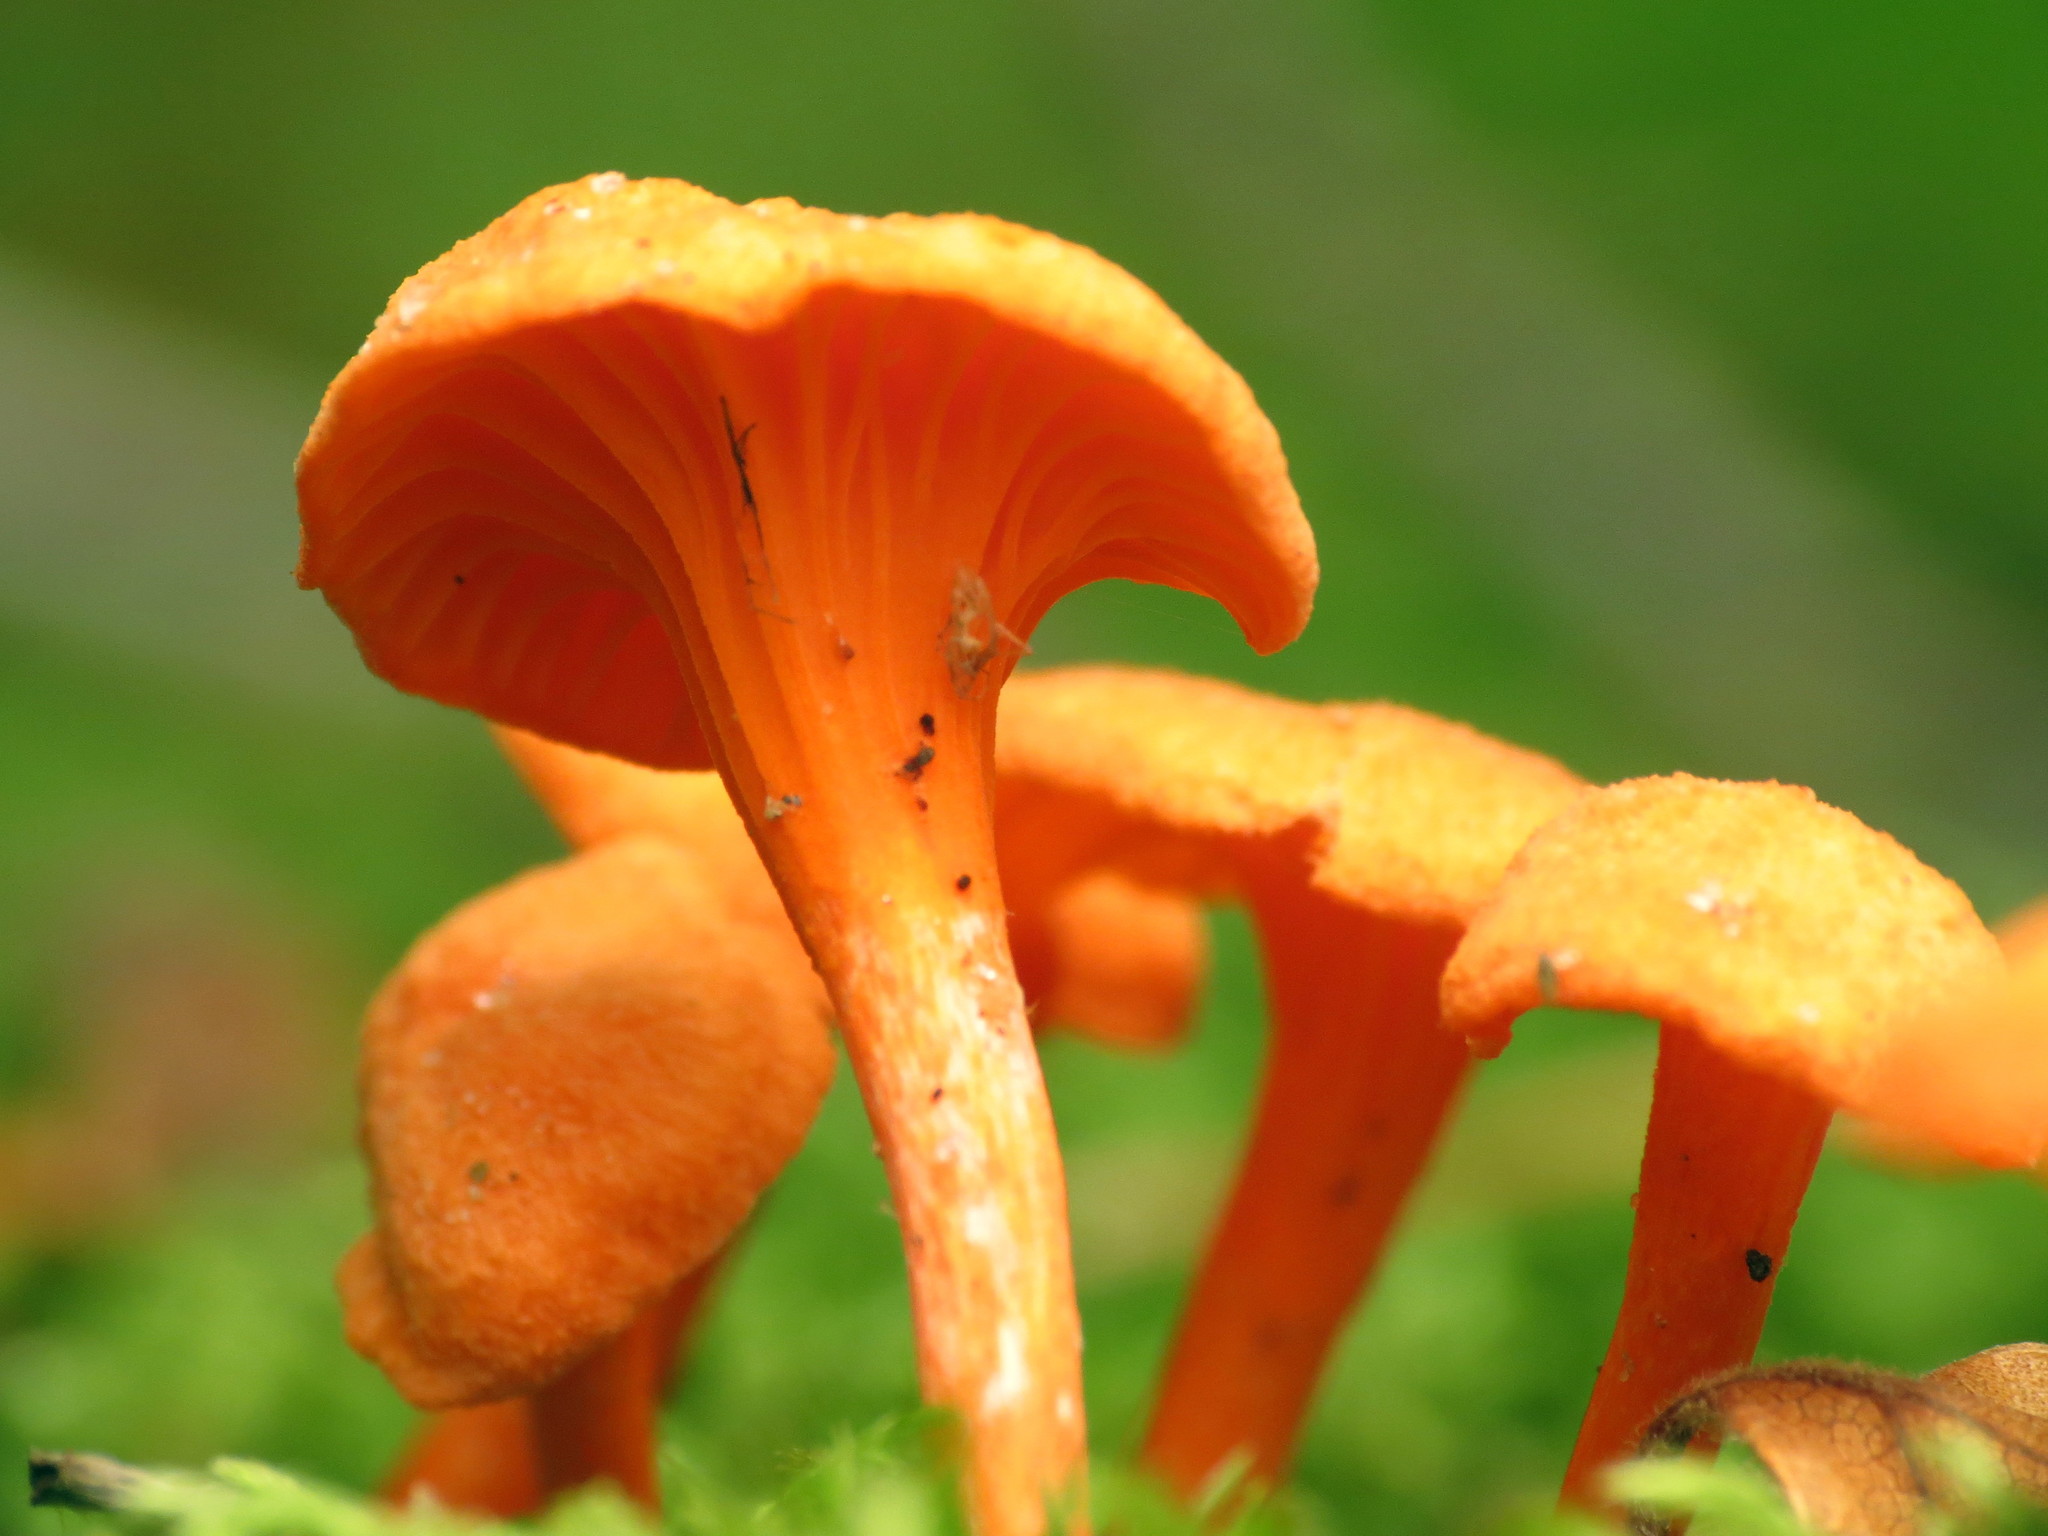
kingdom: Fungi
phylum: Basidiomycota
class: Agaricomycetes
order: Cantharellales
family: Hydnaceae
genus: Cantharellus
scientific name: Cantharellus minor
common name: Small chanterelle
